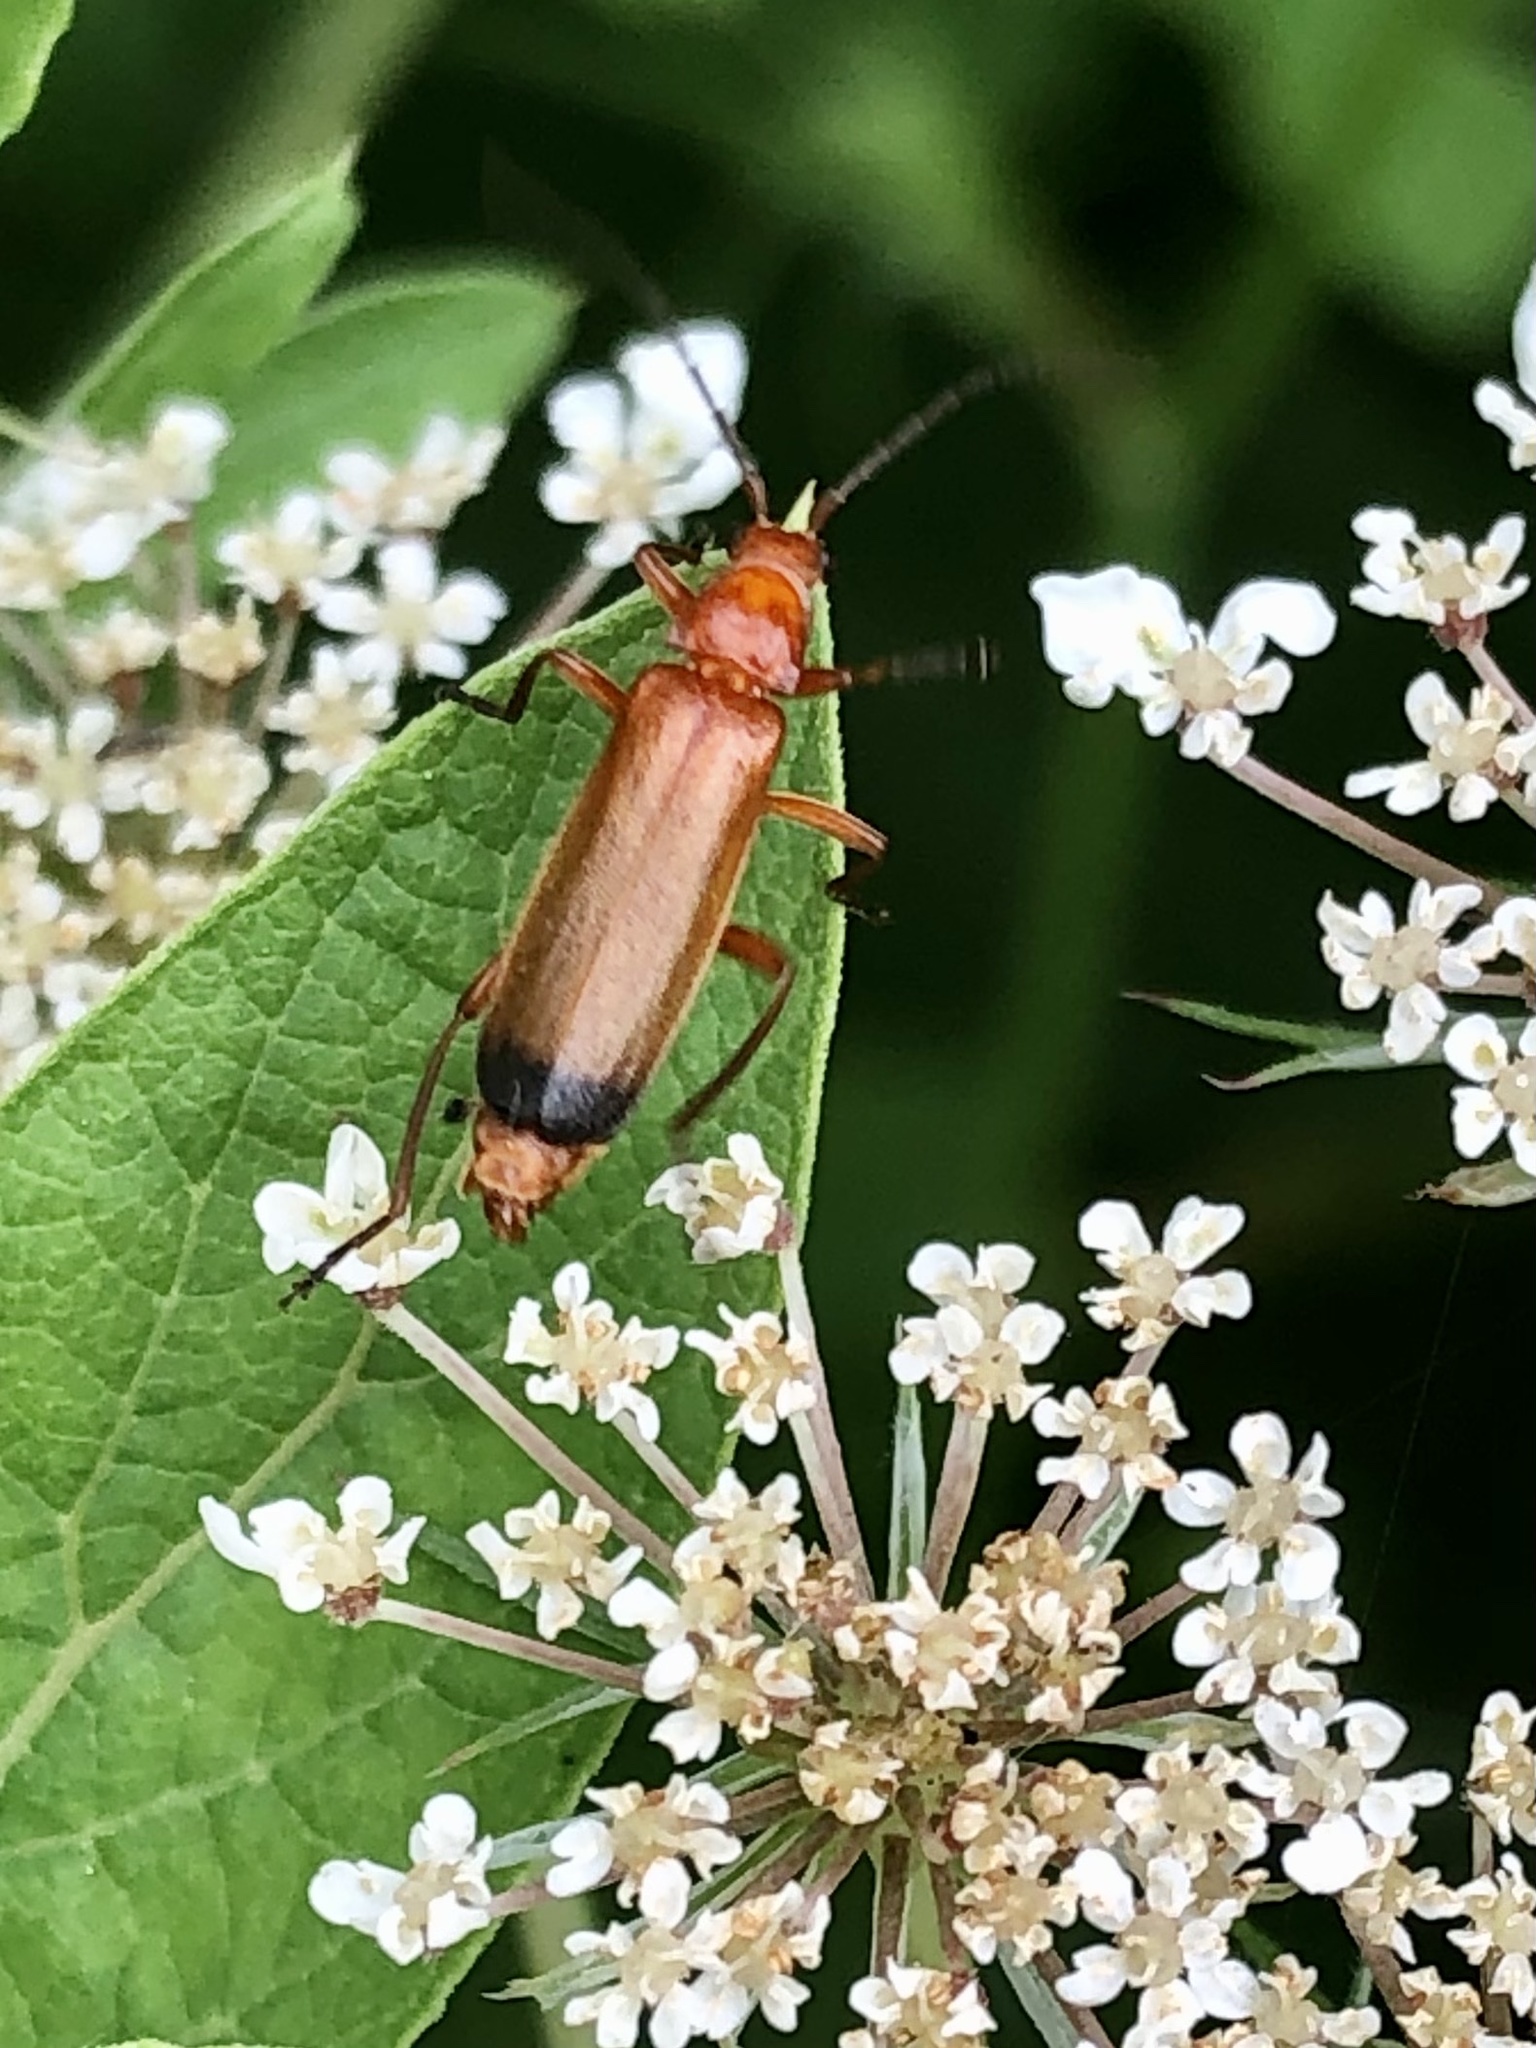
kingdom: Animalia
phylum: Arthropoda
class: Insecta
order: Coleoptera
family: Cantharidae
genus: Rhagonycha
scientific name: Rhagonycha fulva
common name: Common red soldier beetle
